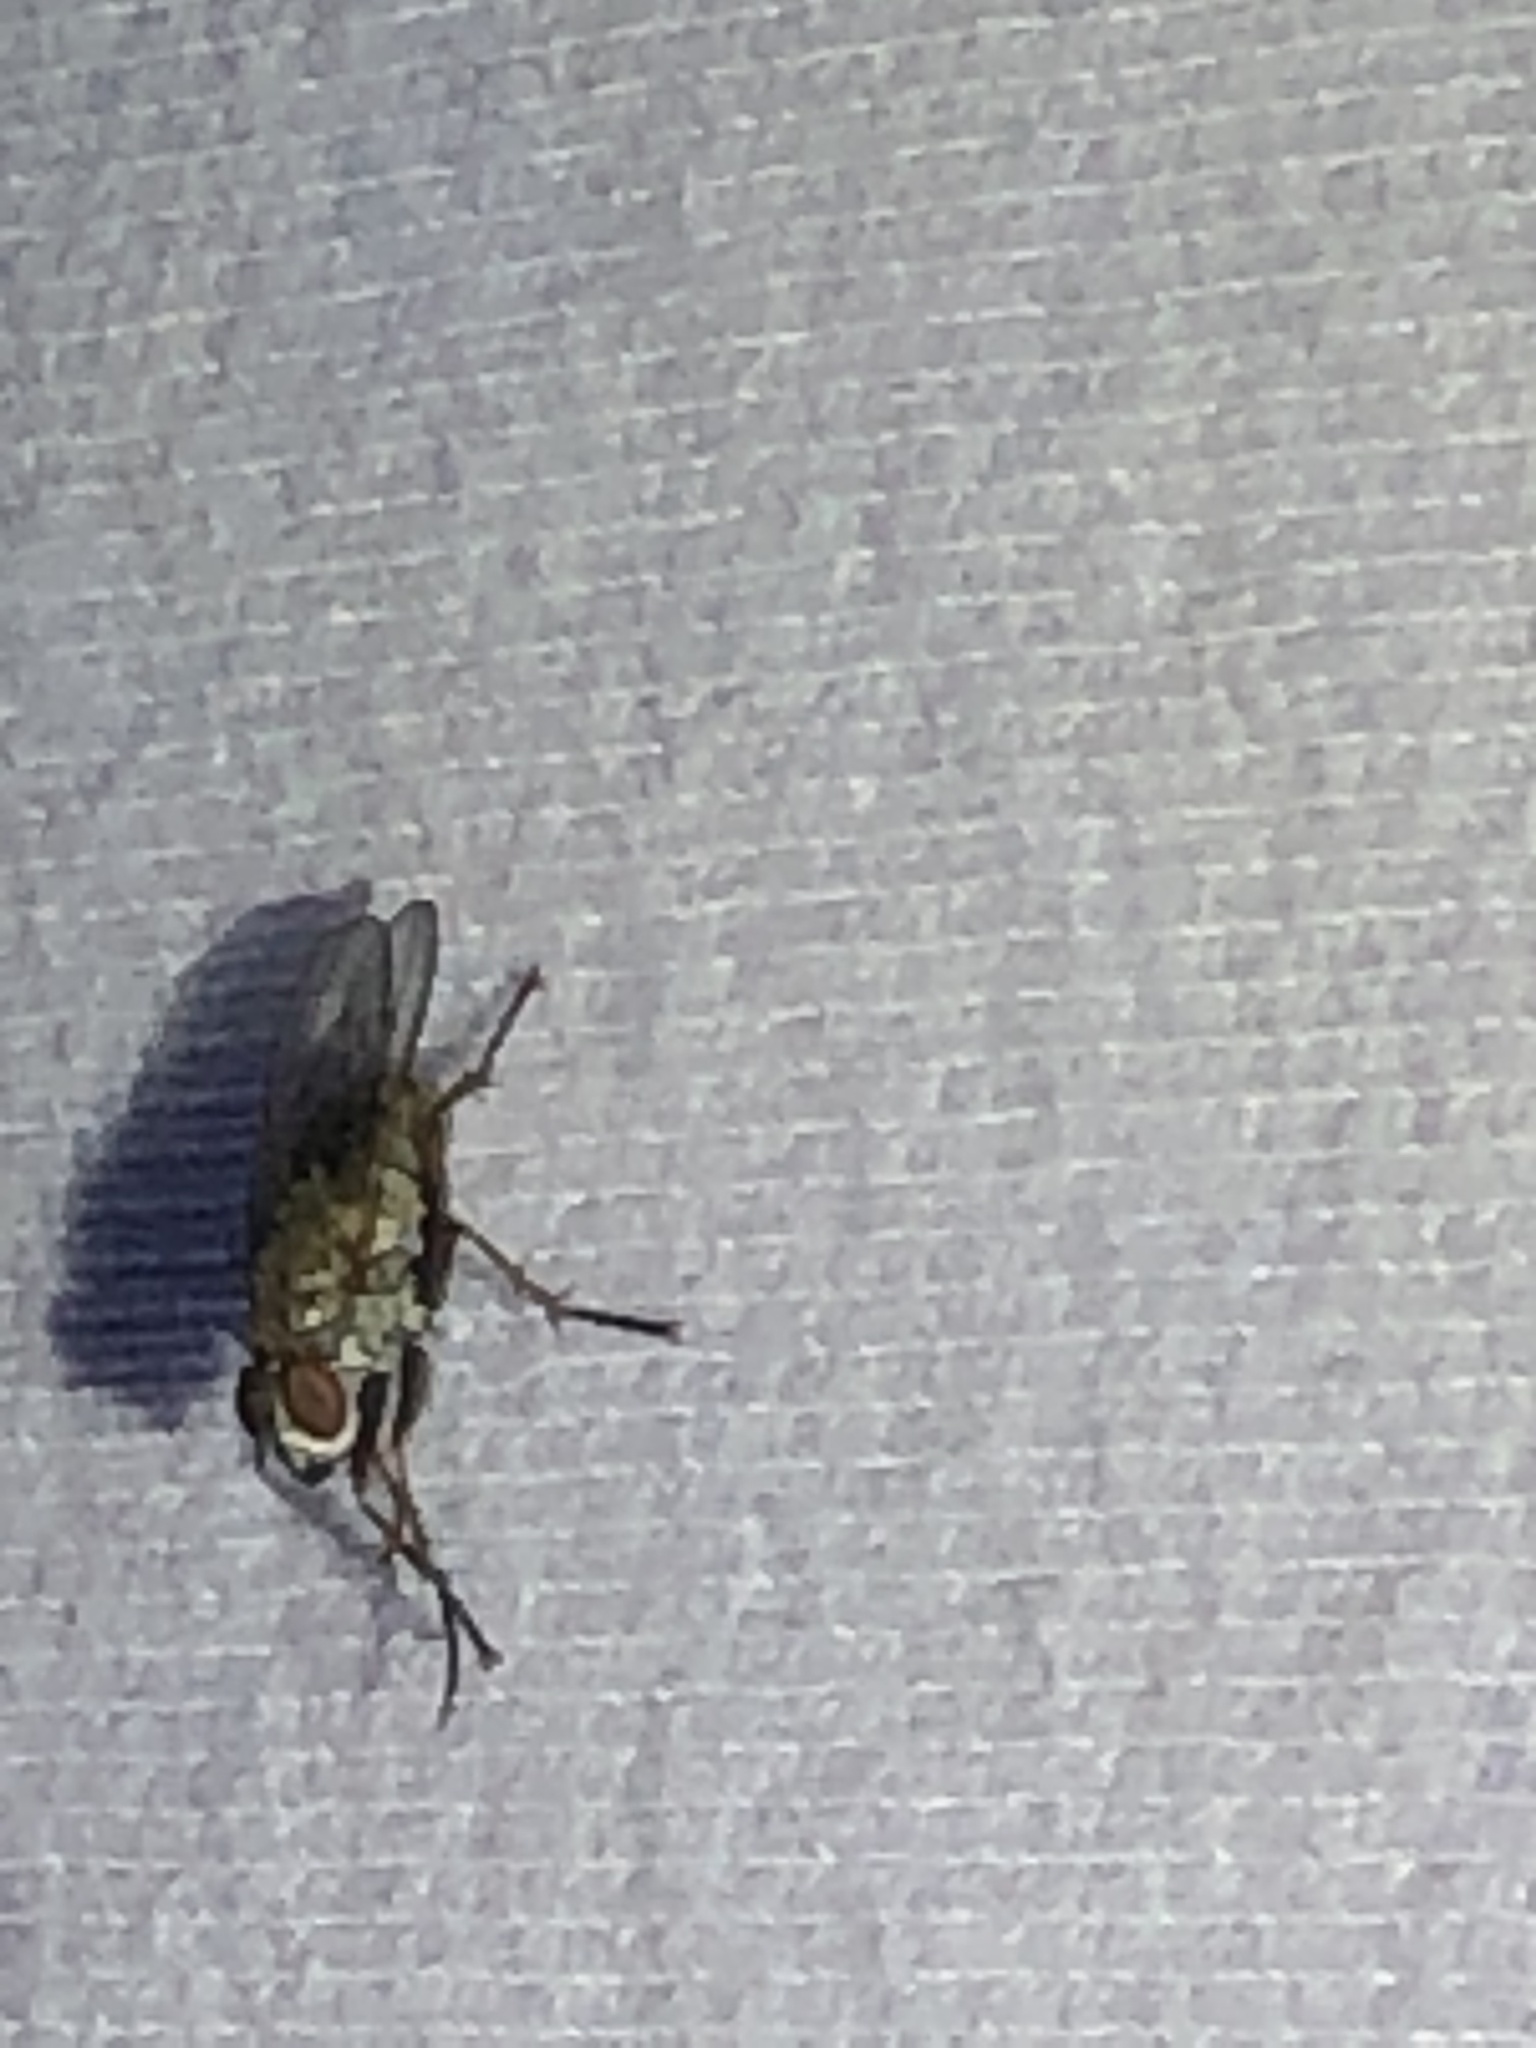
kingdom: Animalia
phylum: Arthropoda
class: Insecta
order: Diptera
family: Muscidae
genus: Coenosia
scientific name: Coenosia tigrina
